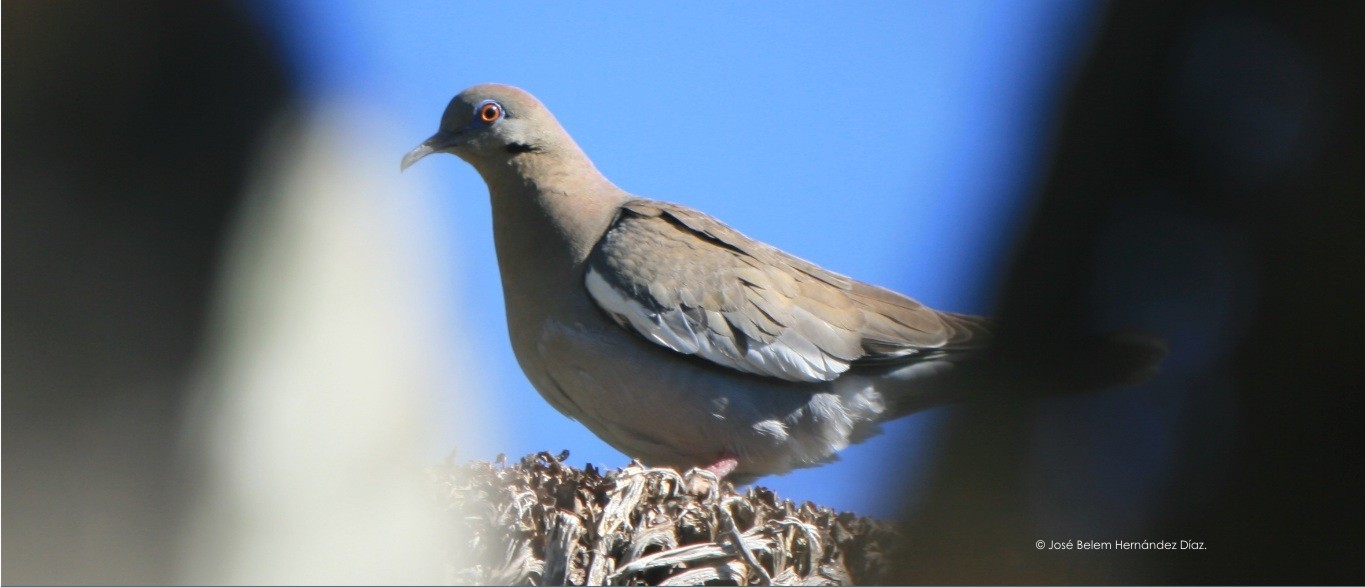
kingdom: Animalia
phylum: Chordata
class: Aves
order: Columbiformes
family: Columbidae
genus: Zenaida
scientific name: Zenaida asiatica
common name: White-winged dove
